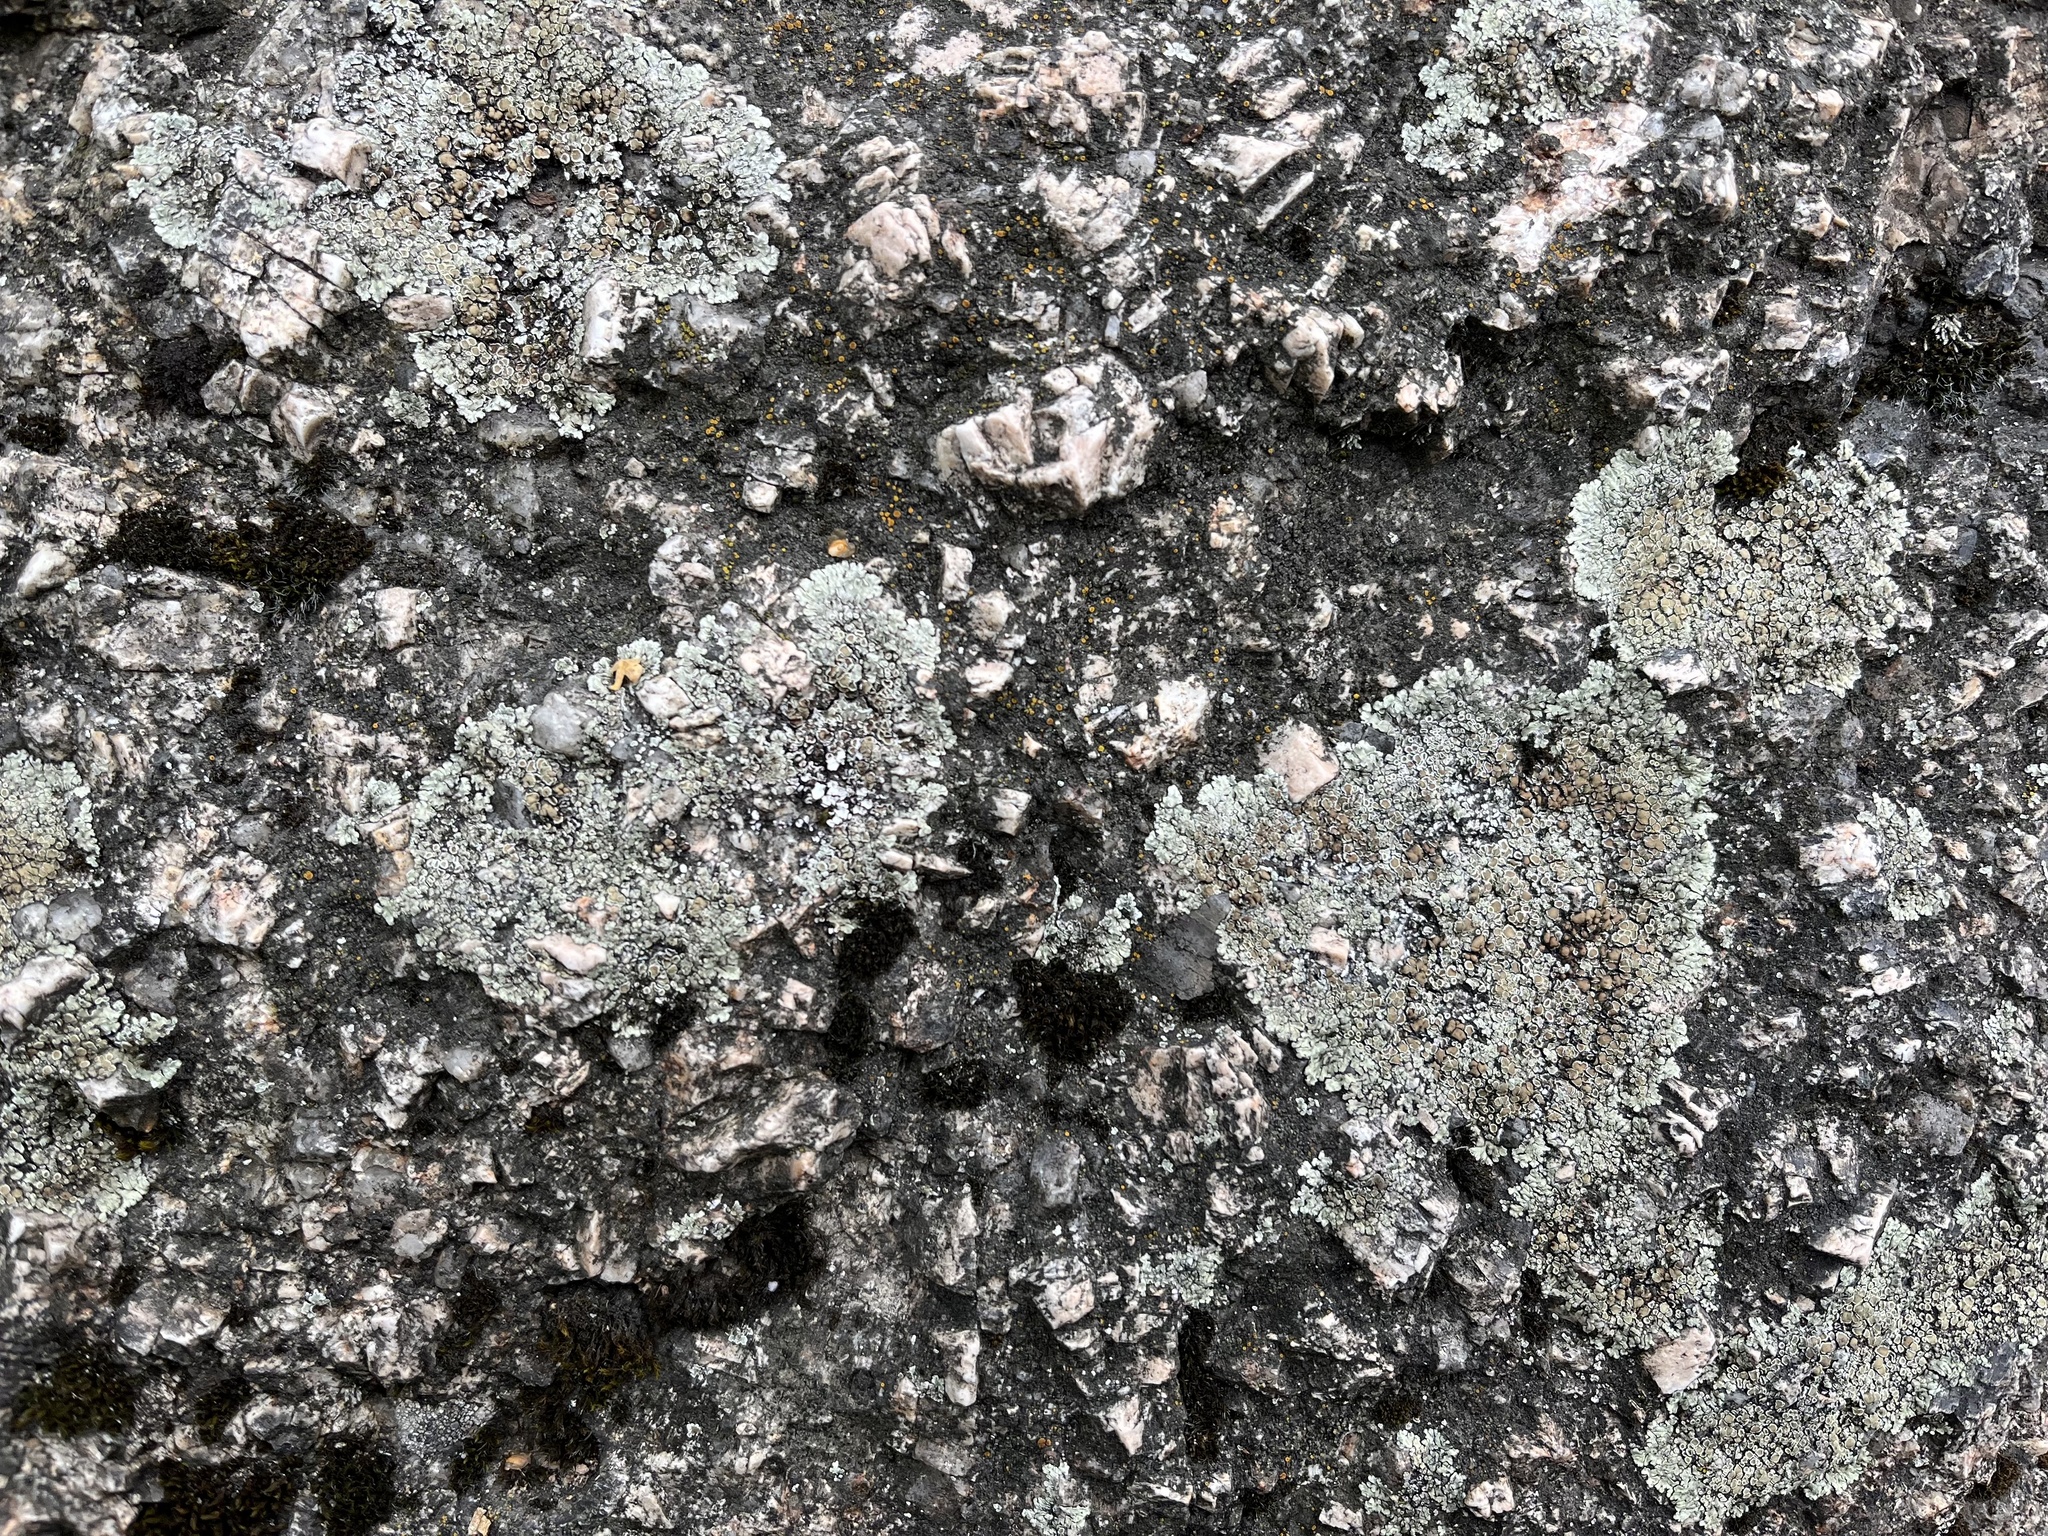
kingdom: Fungi
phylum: Ascomycota
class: Lecanoromycetes
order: Lecanorales
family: Lecanoraceae
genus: Protoparmeliopsis
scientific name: Protoparmeliopsis muralis
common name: Stonewall rim lichen
